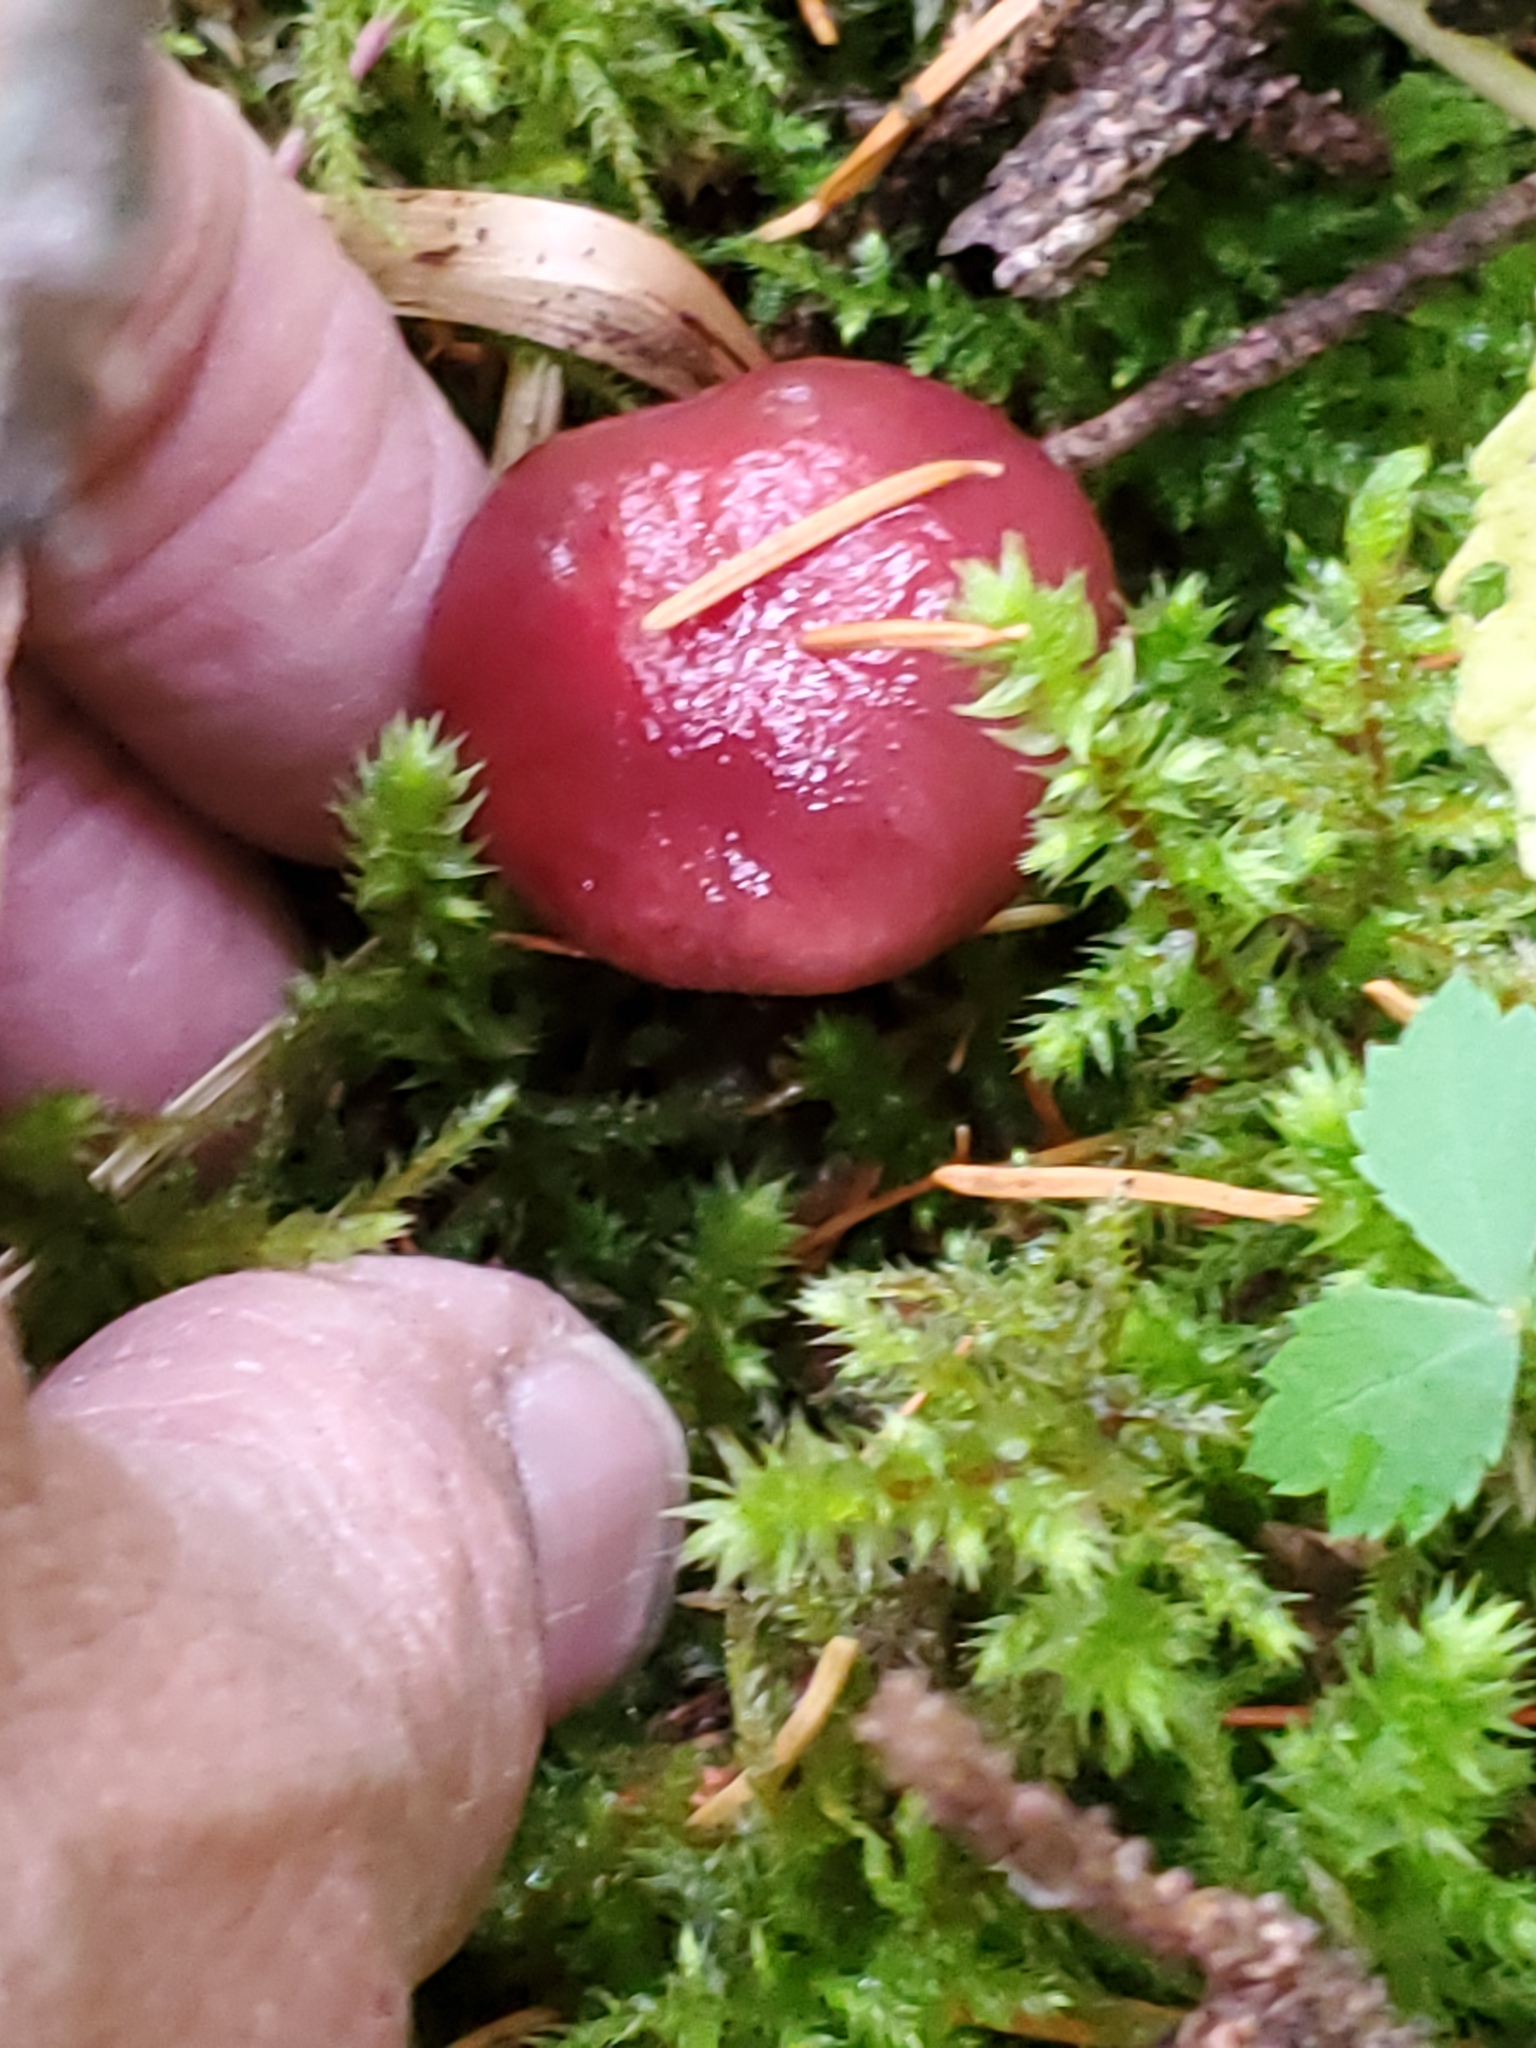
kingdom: Fungi
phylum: Basidiomycota
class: Agaricomycetes
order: Boletales
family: Gomphidiaceae
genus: Gomphidius
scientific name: Gomphidius subroseus
